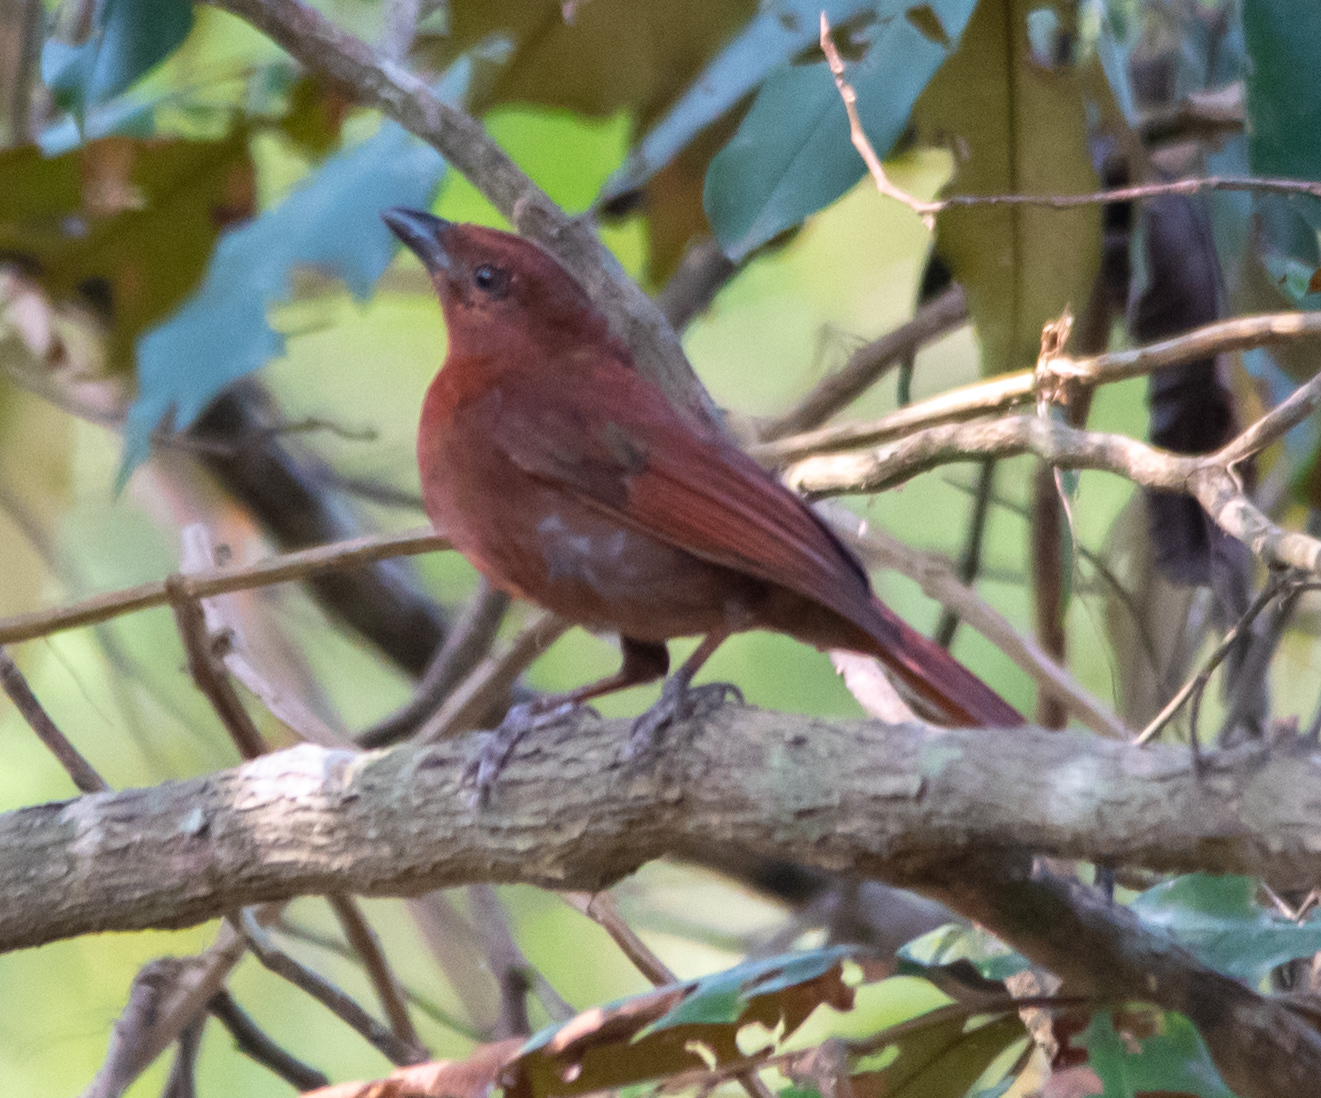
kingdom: Animalia
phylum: Chordata
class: Aves
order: Passeriformes
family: Cardinalidae
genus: Habia
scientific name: Habia fuscicauda
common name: Red-throated ant-tanager
